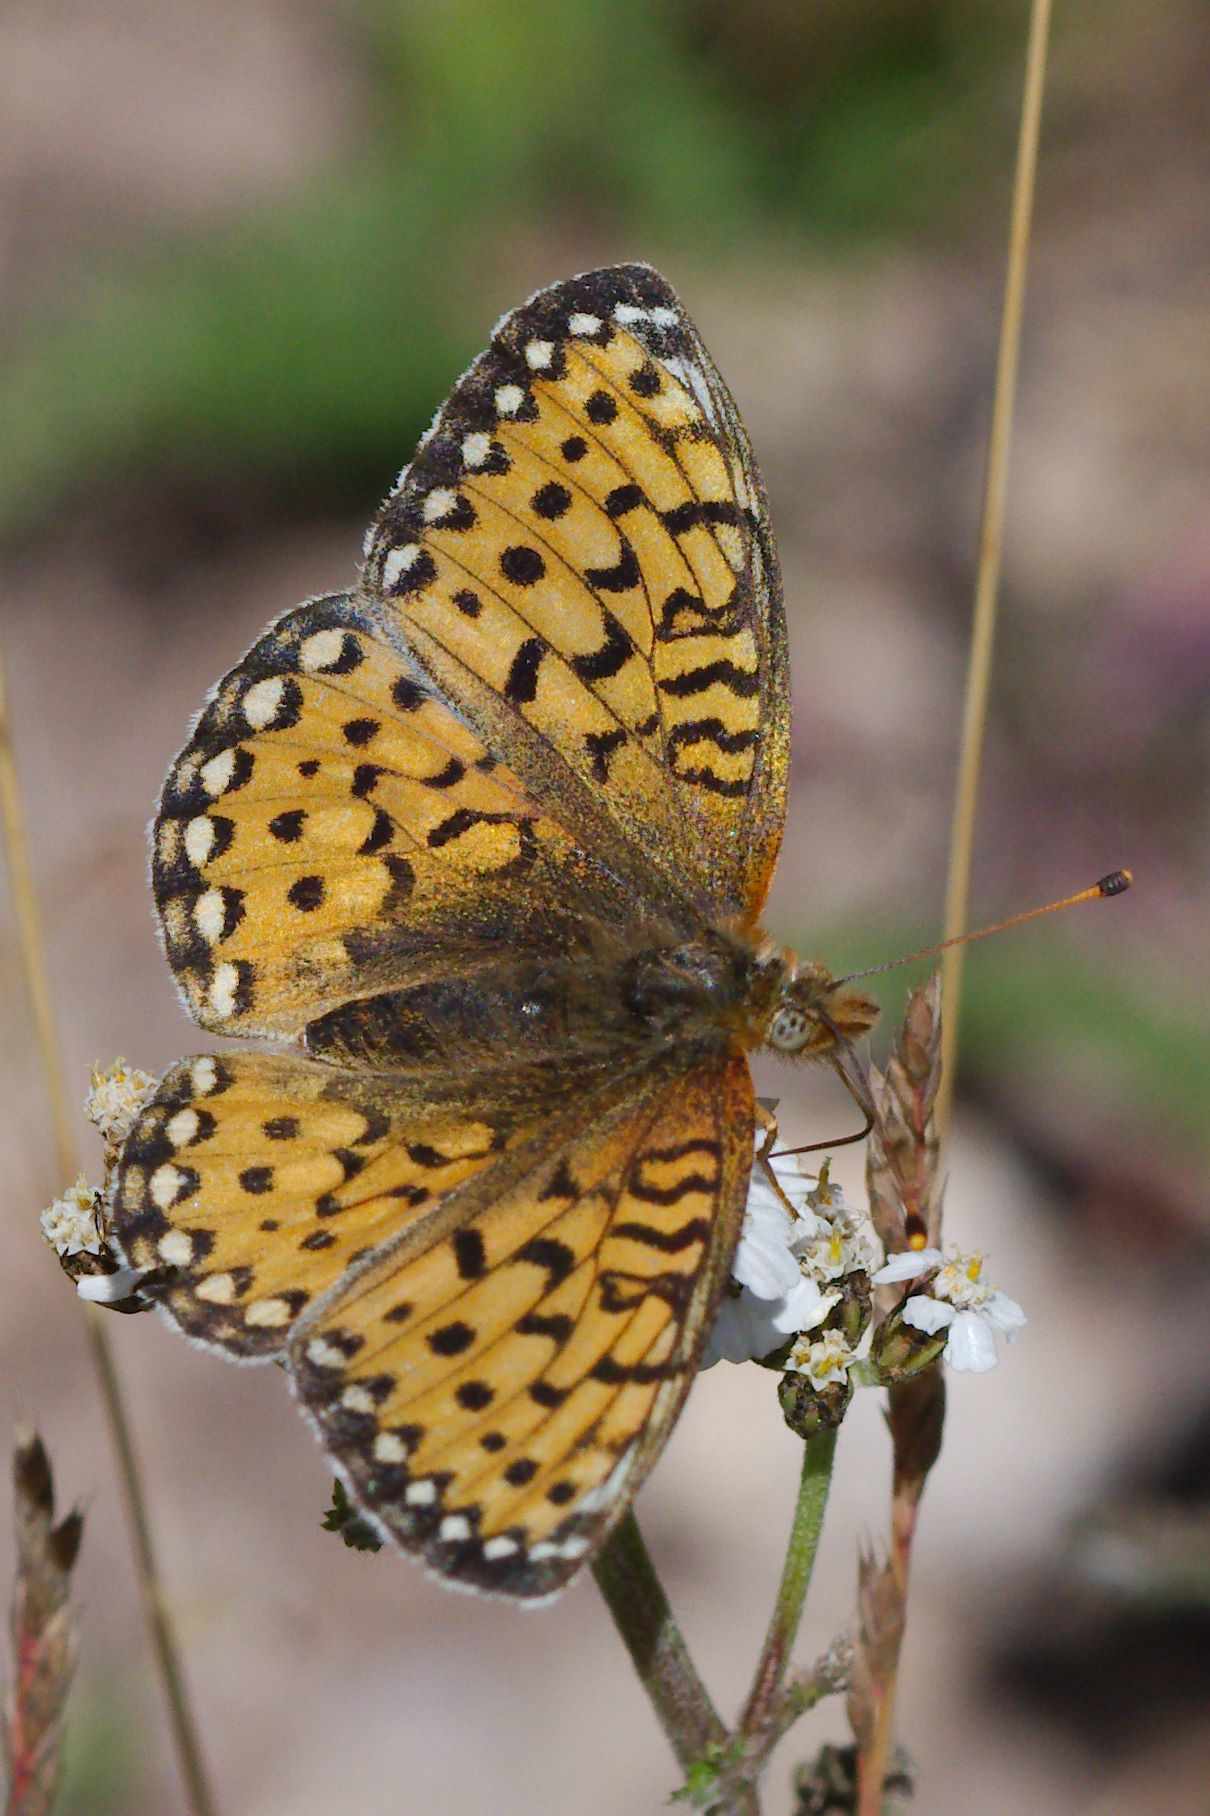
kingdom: Animalia
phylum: Arthropoda
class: Insecta
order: Lepidoptera
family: Nymphalidae
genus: Speyeria
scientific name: Speyeria mormonia
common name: Mormon fritillary
